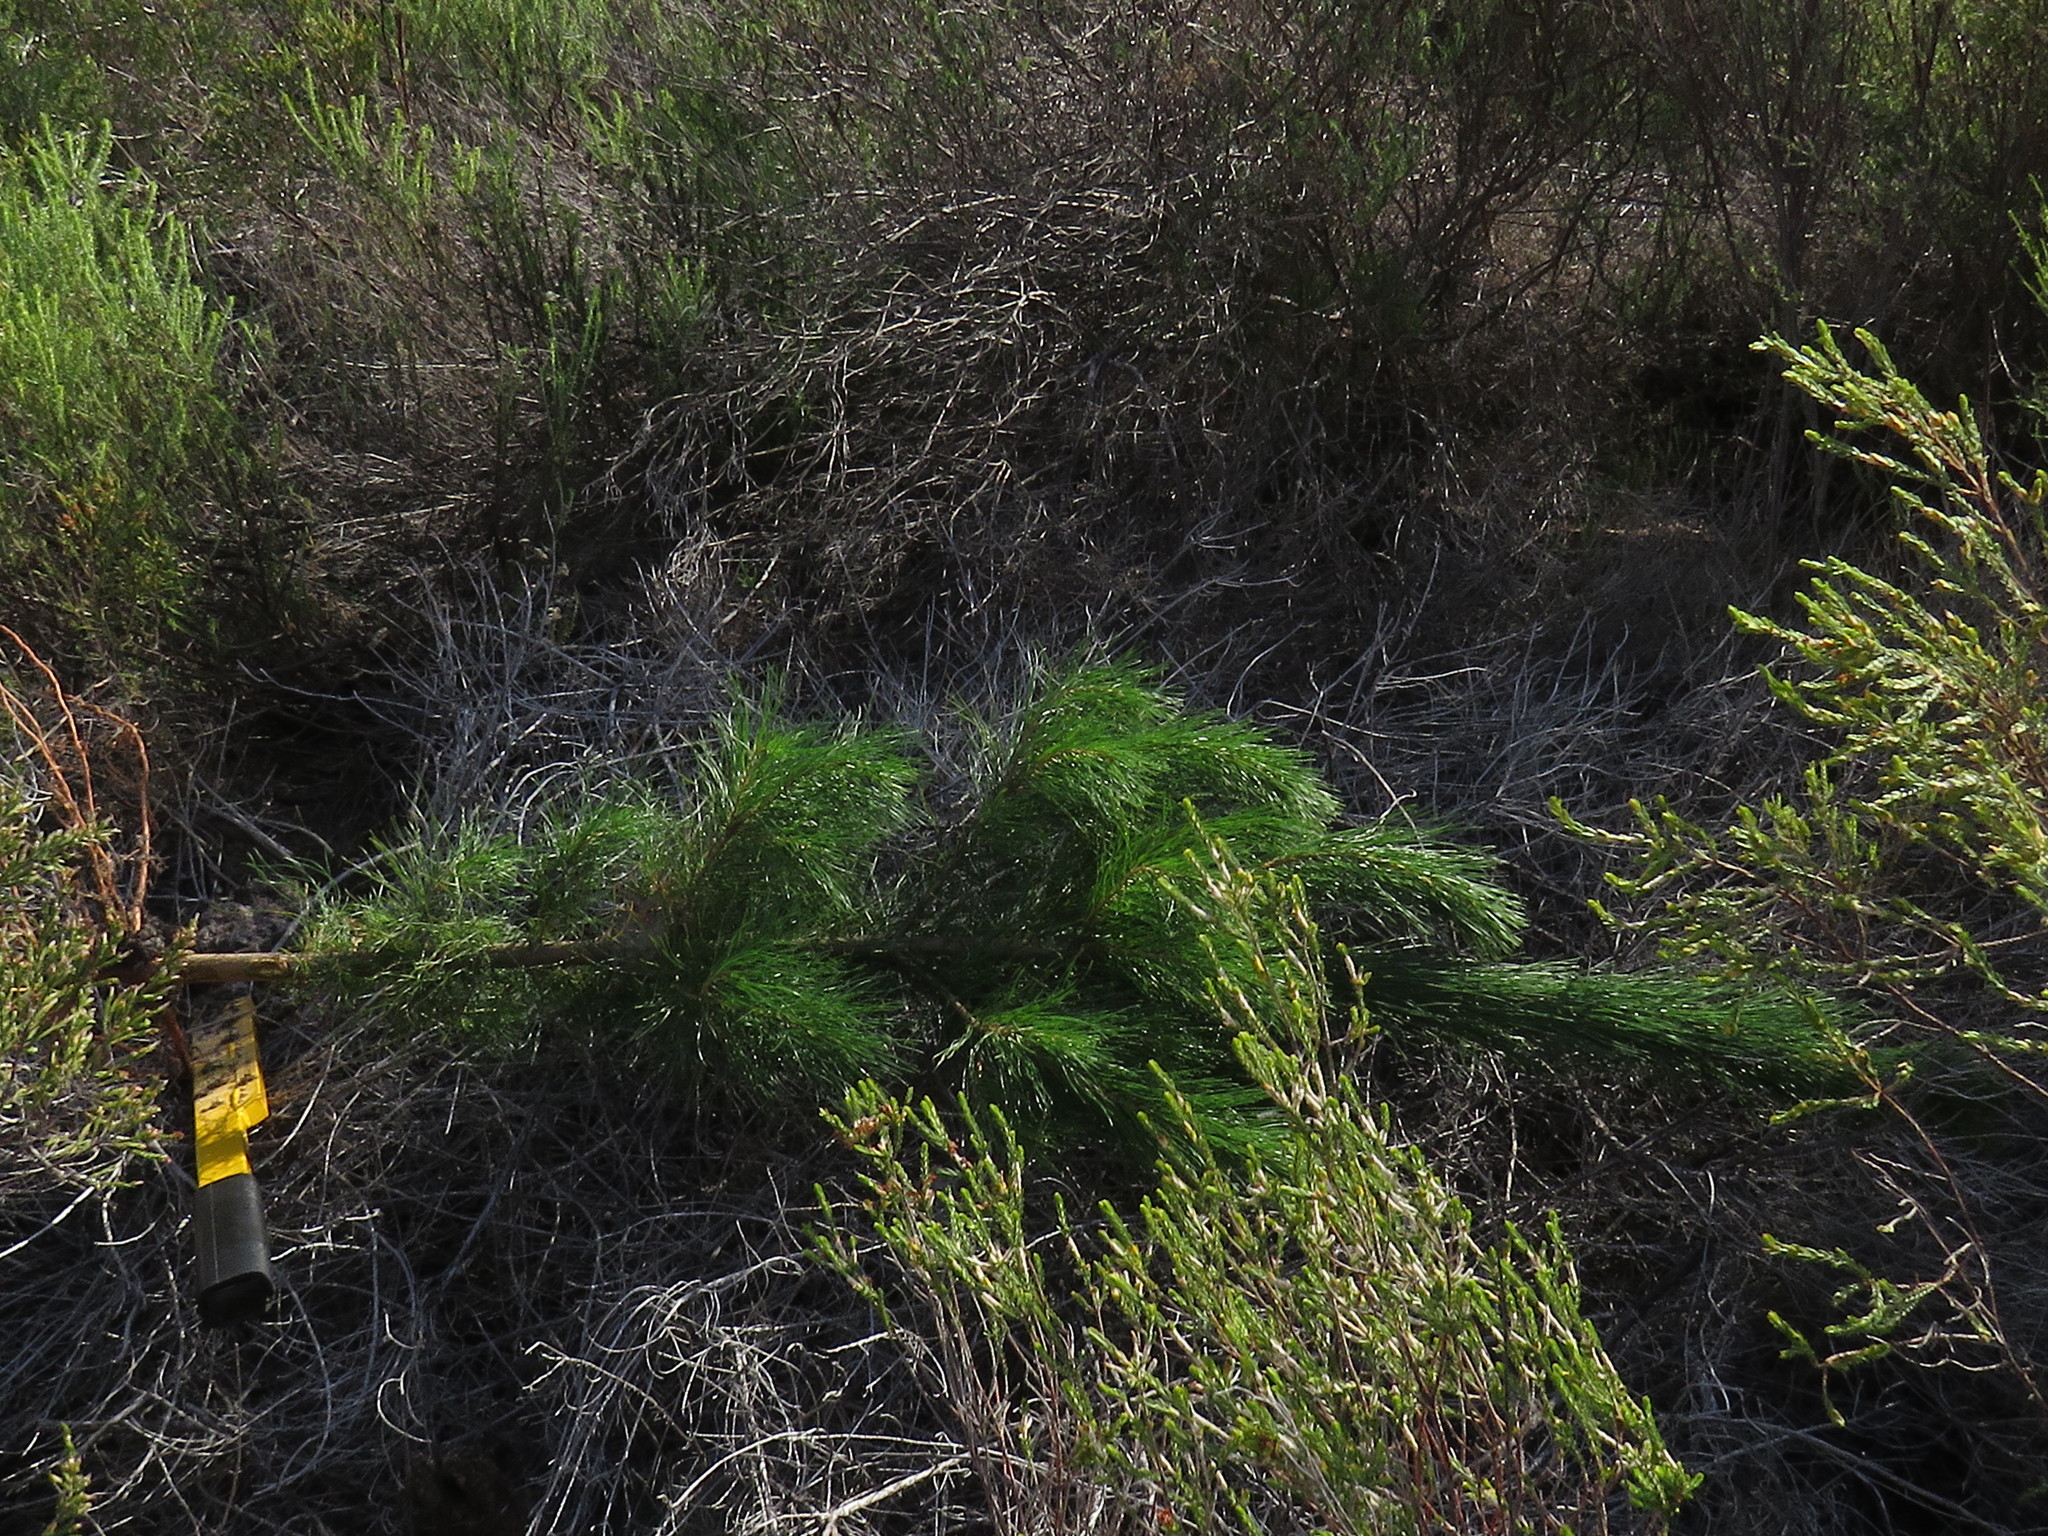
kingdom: Plantae
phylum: Tracheophyta
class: Pinopsida
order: Pinales
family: Pinaceae
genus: Pinus
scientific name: Pinus radiata
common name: Monterey pine
